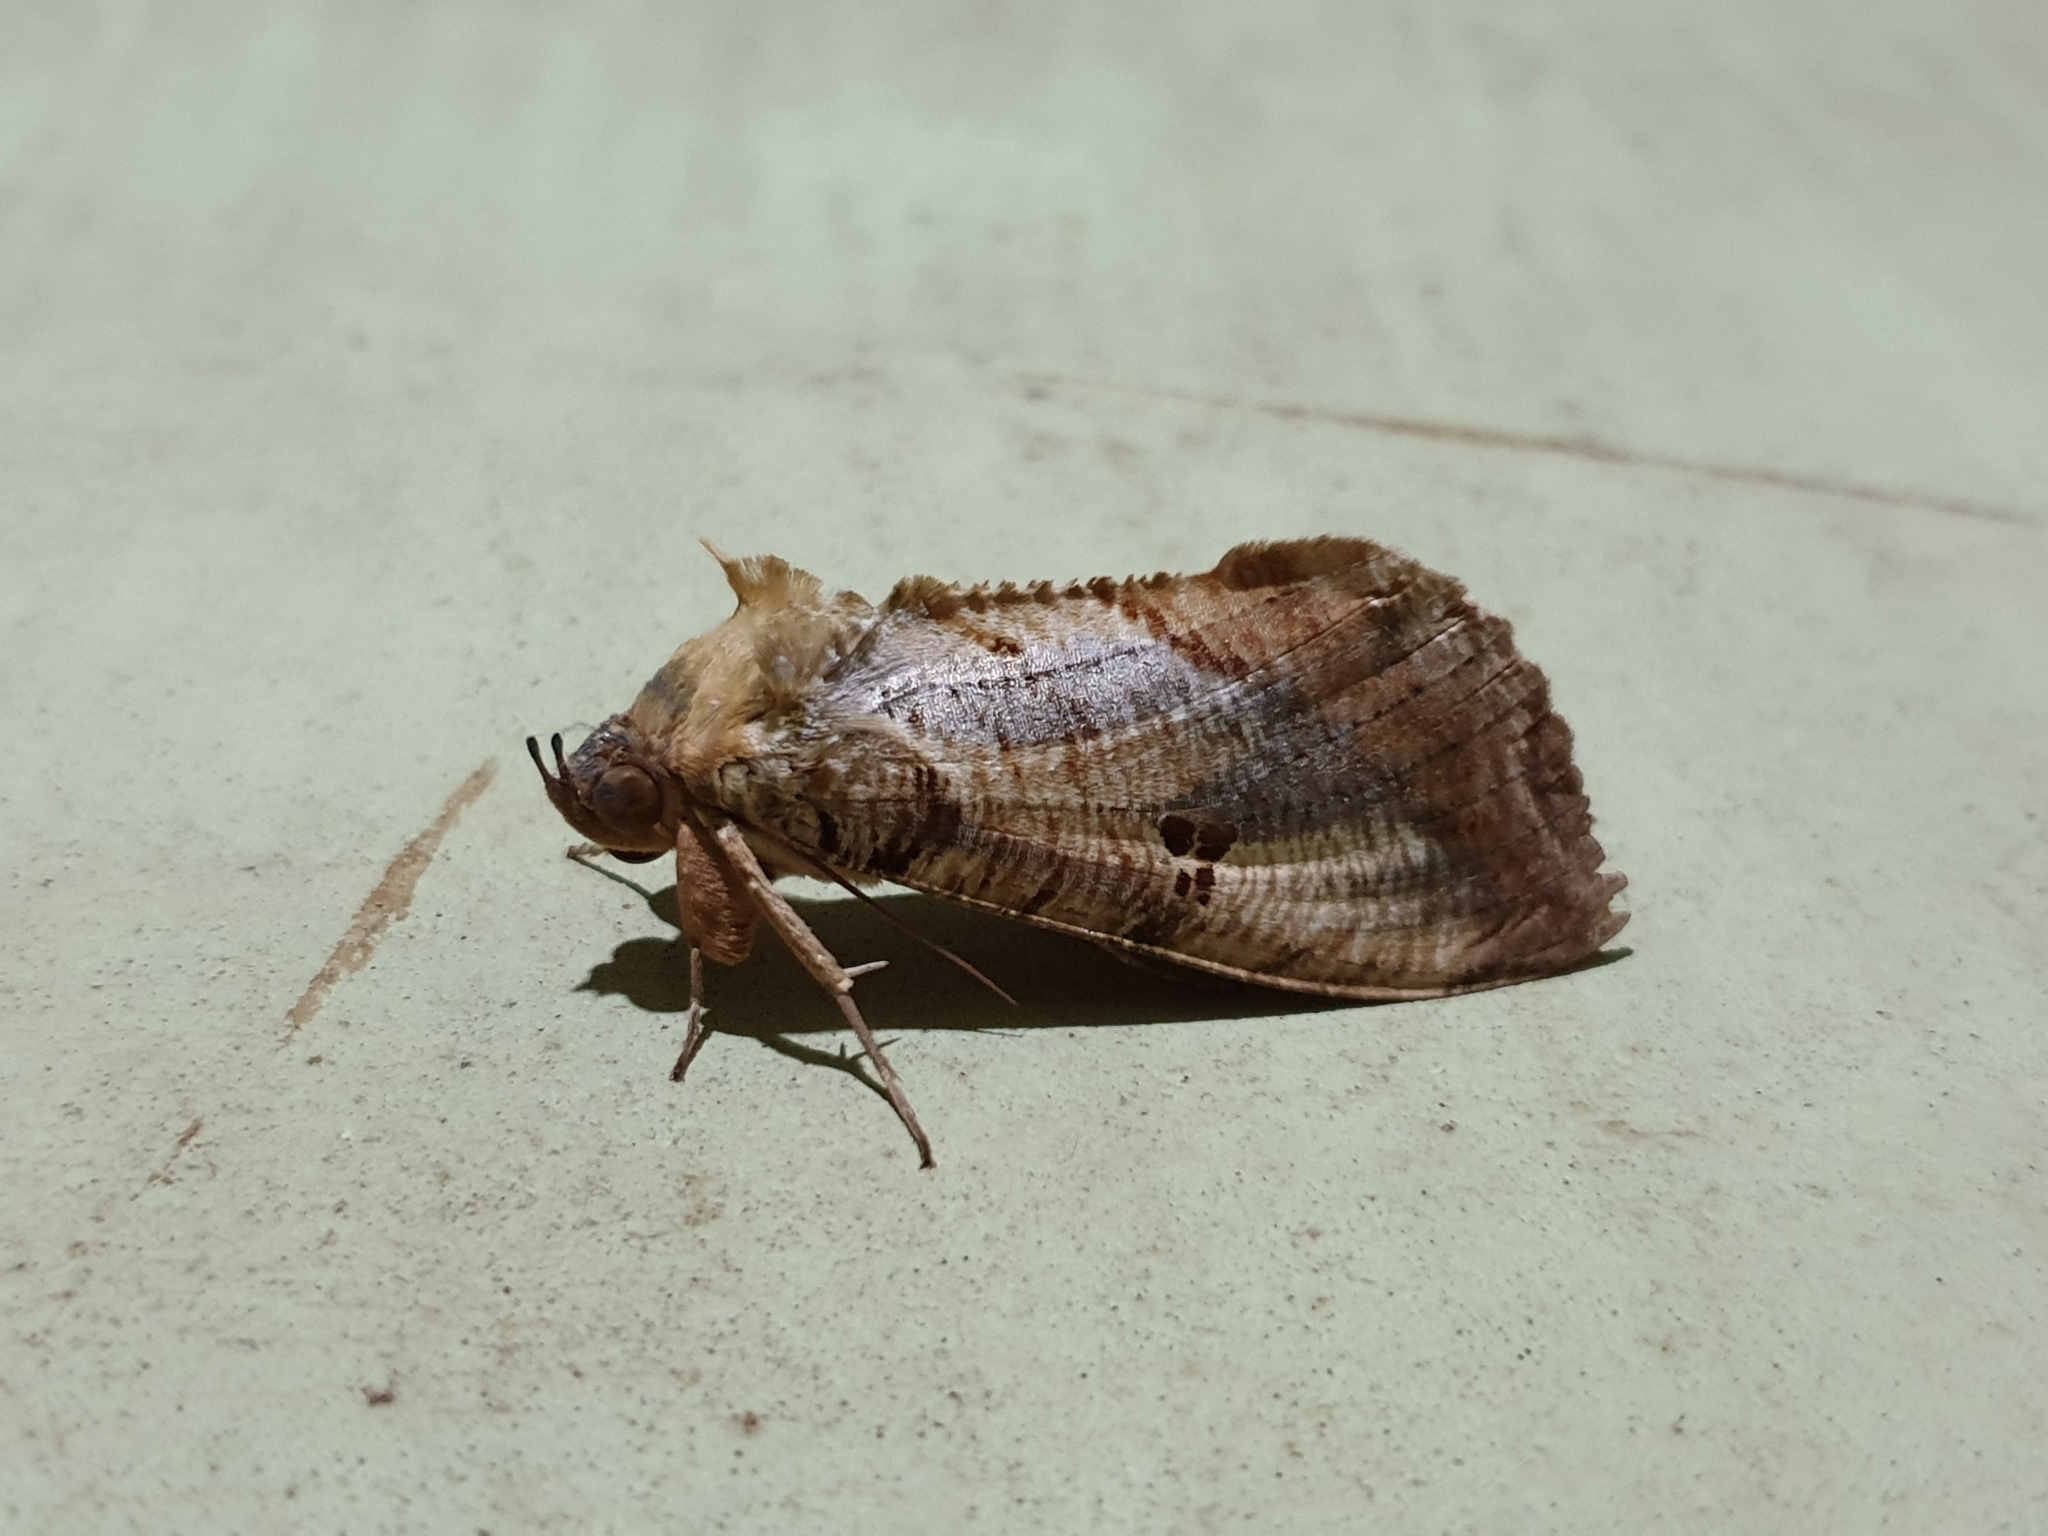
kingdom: Animalia
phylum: Arthropoda
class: Insecta
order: Lepidoptera
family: Erebidae
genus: Eudocima
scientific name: Eudocima materna
